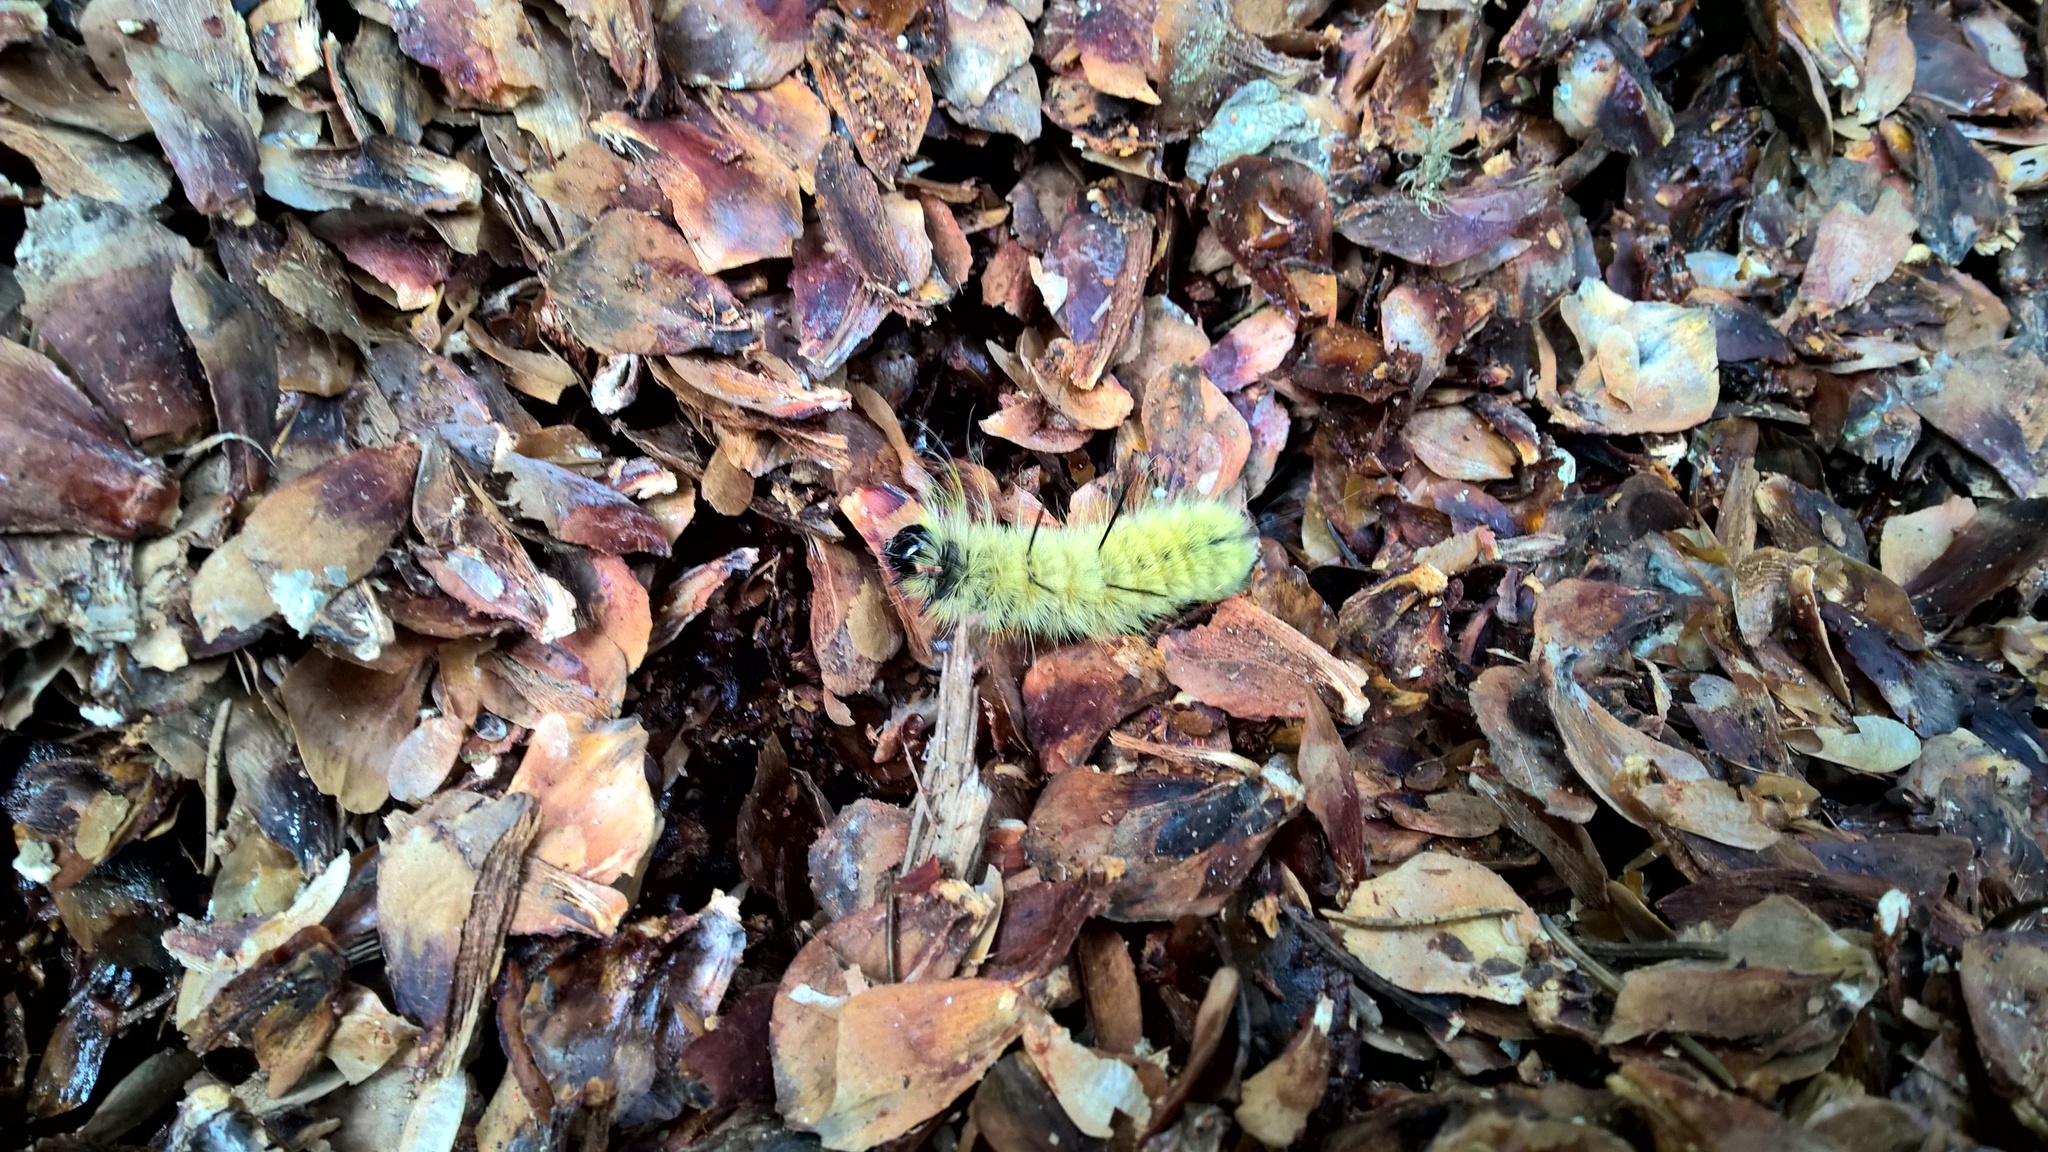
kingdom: Animalia
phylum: Arthropoda
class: Insecta
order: Lepidoptera
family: Noctuidae
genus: Acronicta
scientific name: Acronicta americana
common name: American dagger
